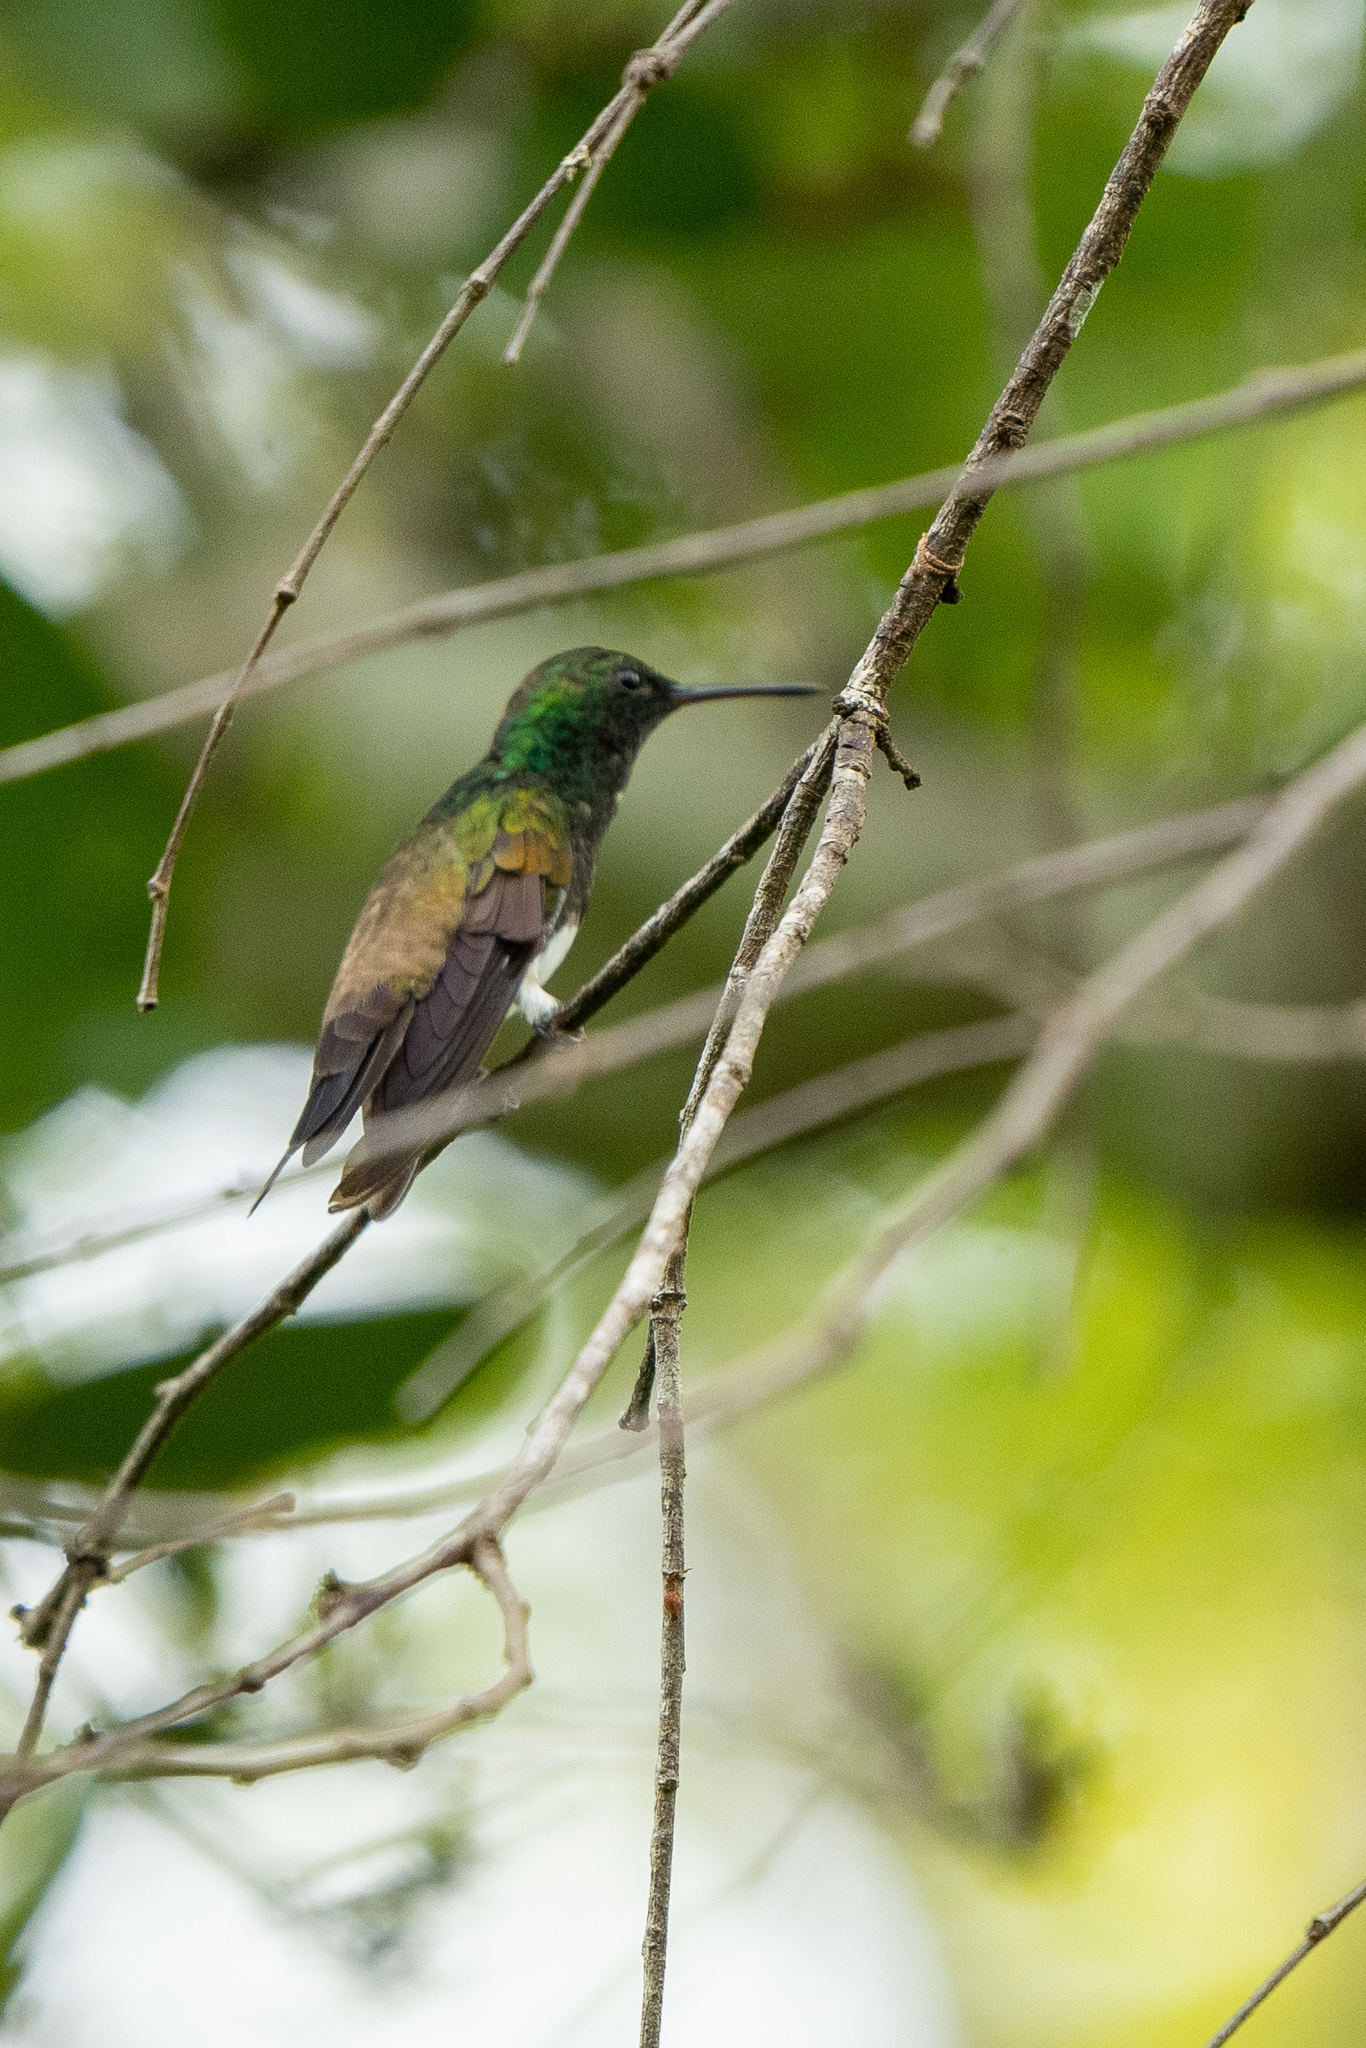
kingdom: Animalia
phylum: Chordata
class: Aves
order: Apodiformes
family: Trochilidae
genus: Saucerottia
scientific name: Saucerottia edward
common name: Snowy-bellied hummingbird
